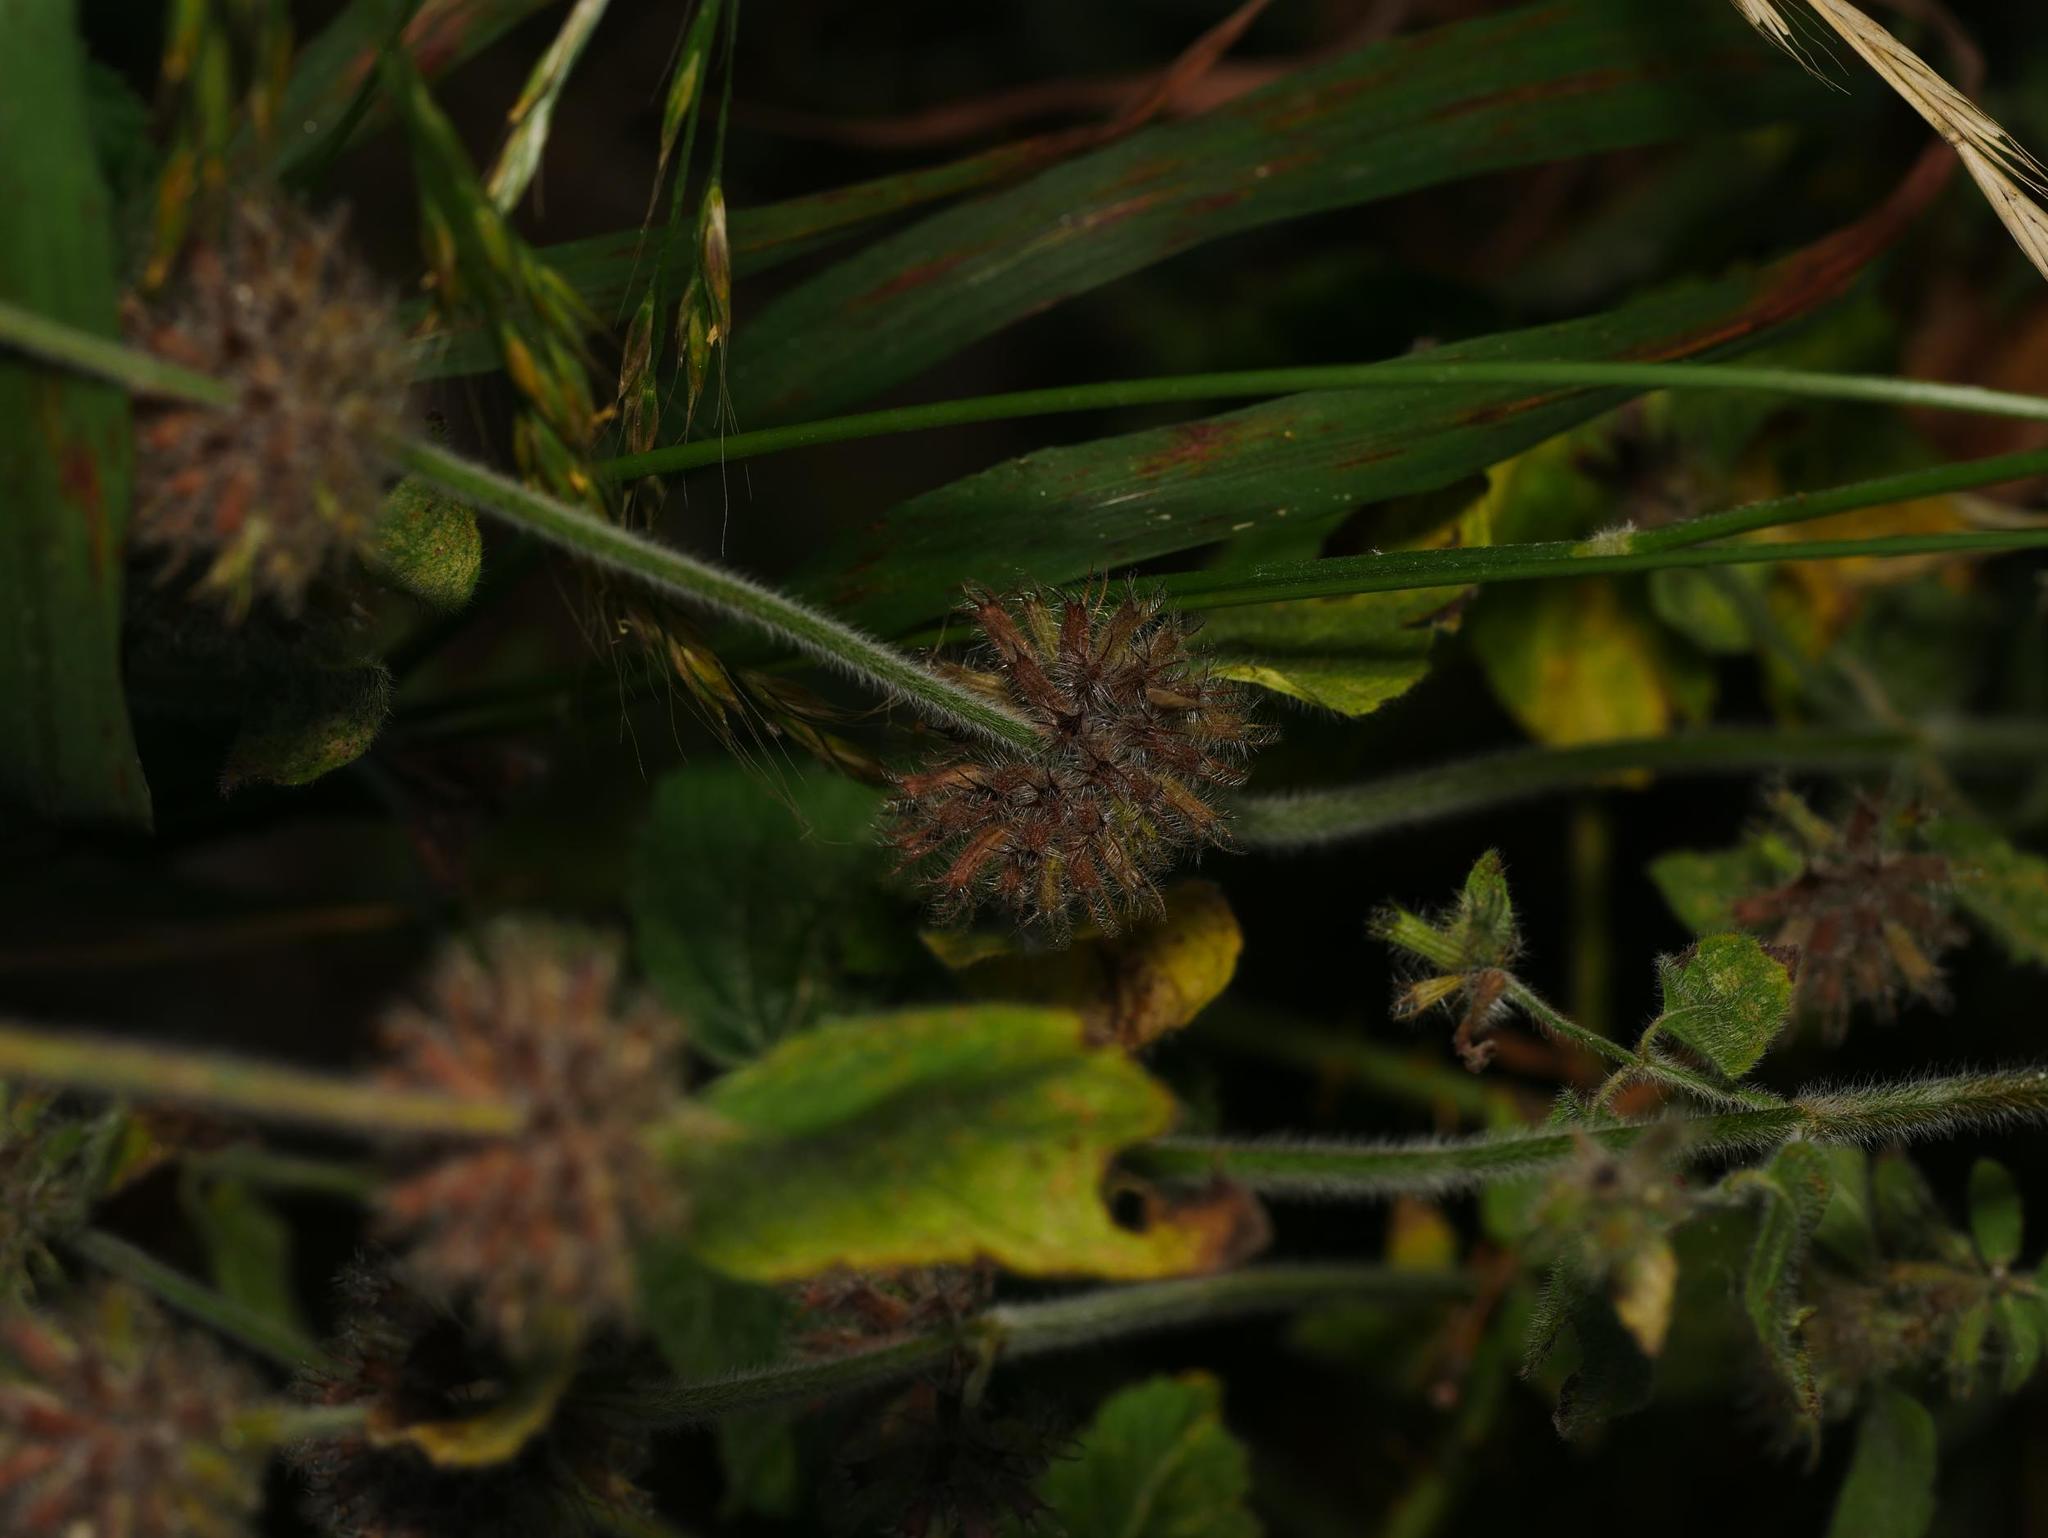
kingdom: Plantae
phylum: Tracheophyta
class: Magnoliopsida
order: Lamiales
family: Lamiaceae
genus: Clinopodium
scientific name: Clinopodium vulgare
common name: Wild basil
